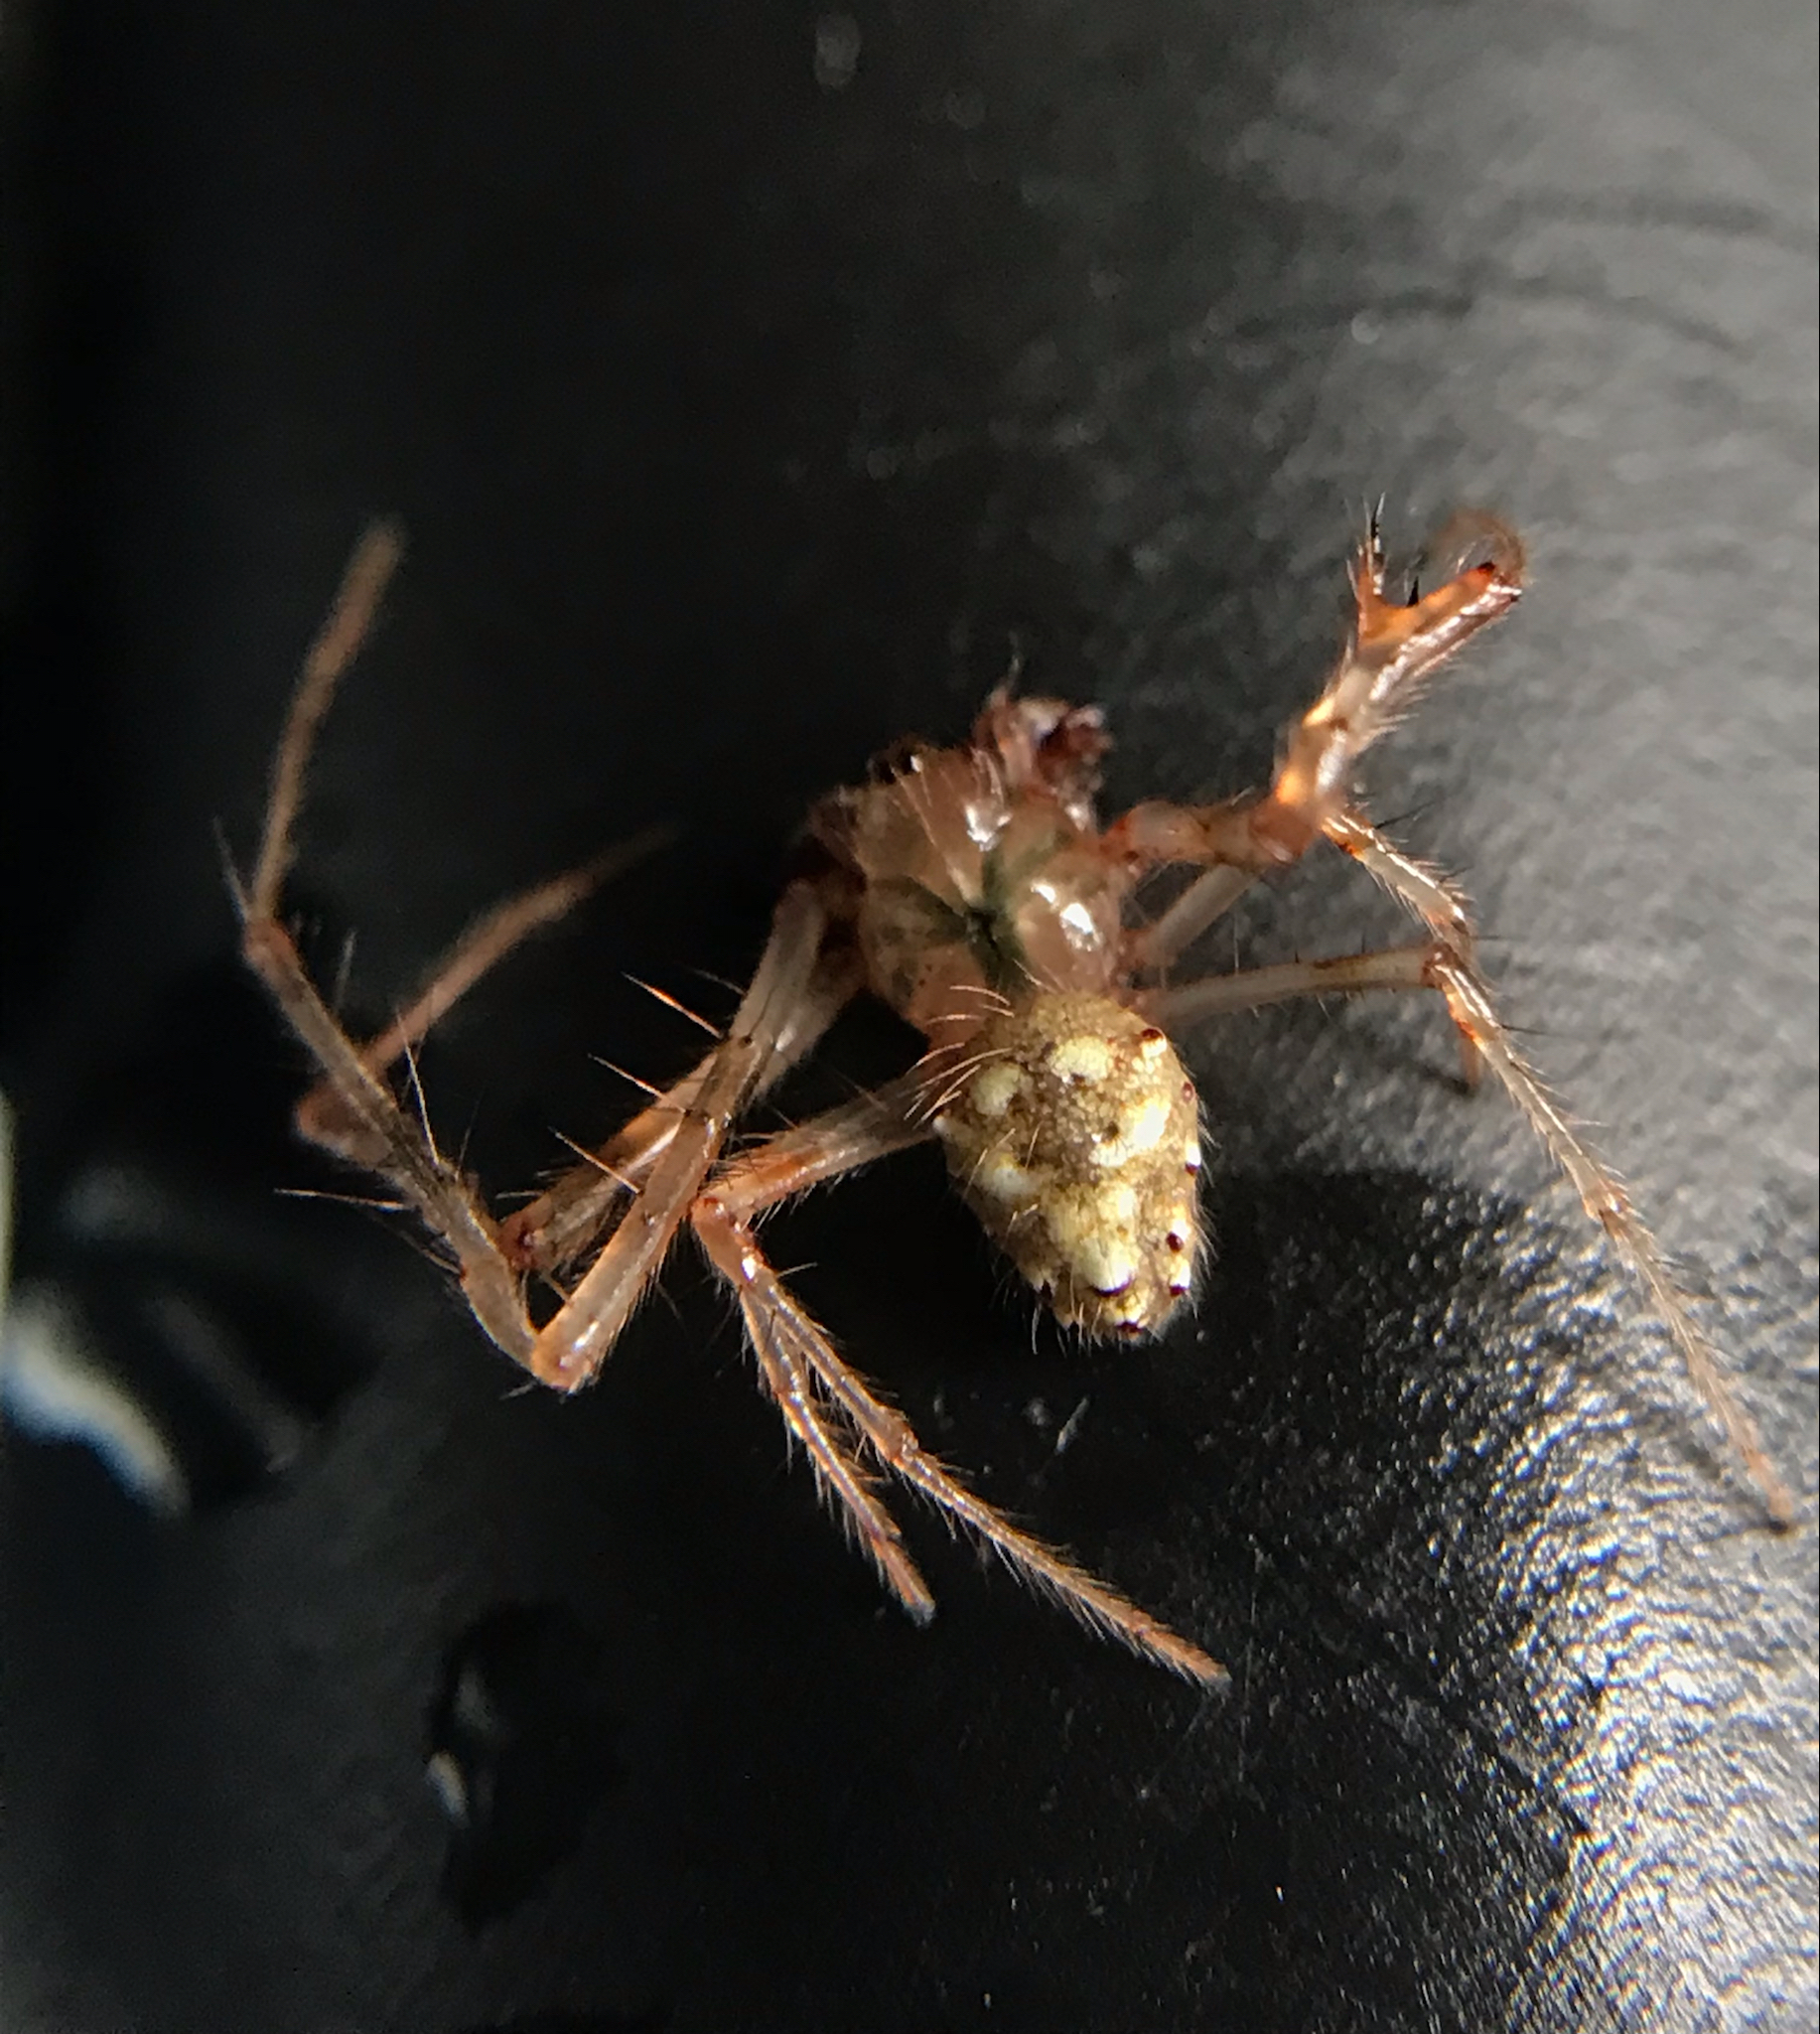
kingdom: Animalia
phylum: Arthropoda
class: Arachnida
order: Araneae
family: Araneidae
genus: Verrucosa
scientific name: Verrucosa arenata
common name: Orb weavers
